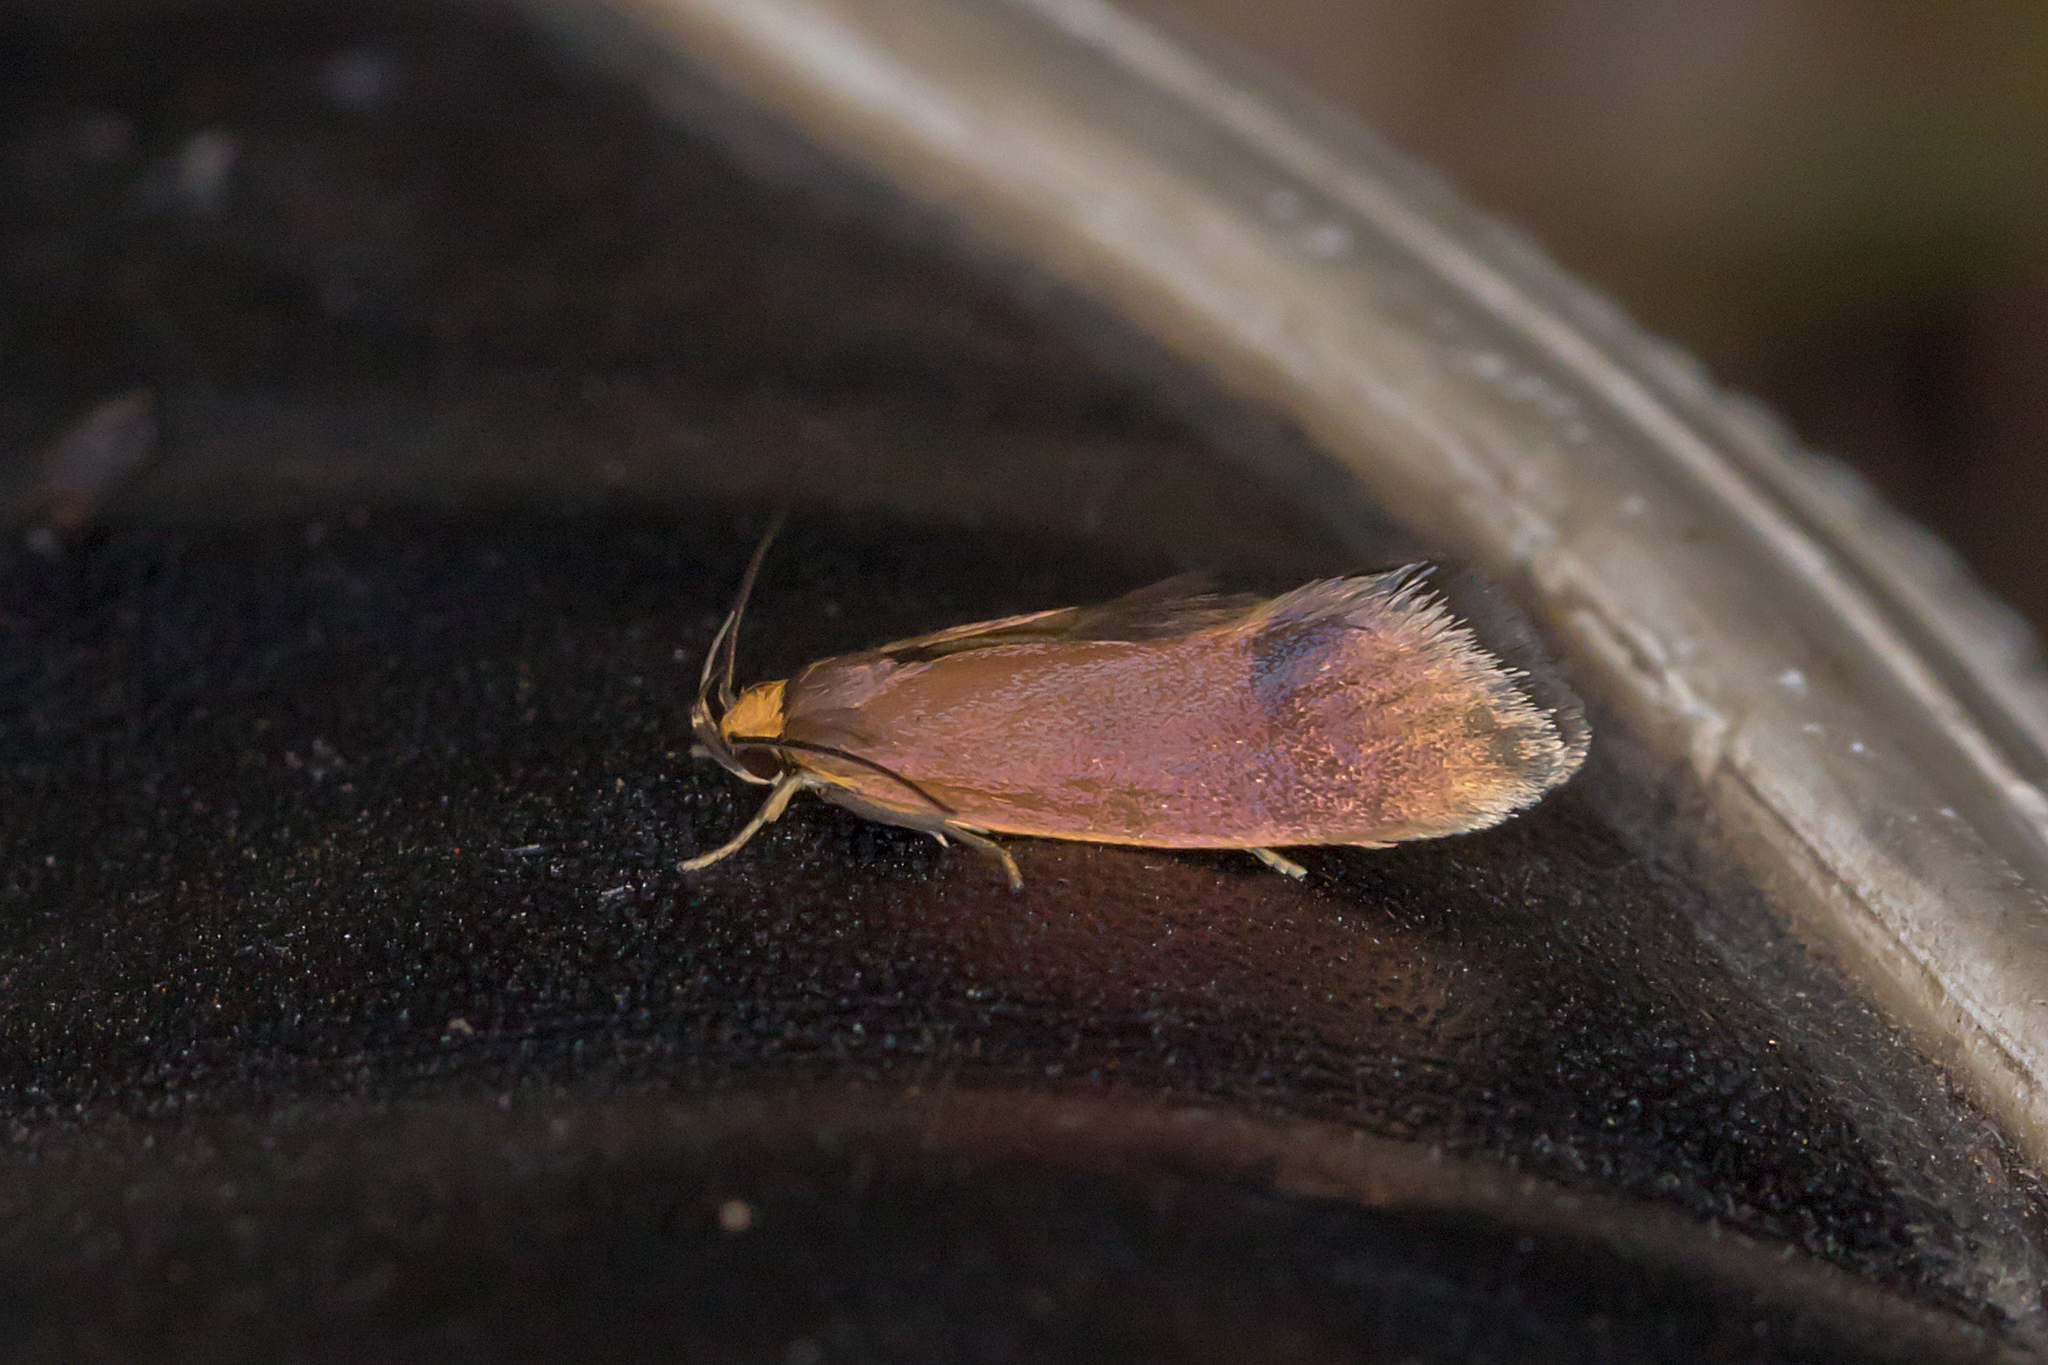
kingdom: Animalia
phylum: Arthropoda
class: Insecta
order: Lepidoptera
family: Oecophoridae
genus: Delexocha
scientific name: Delexocha ochrocausta
